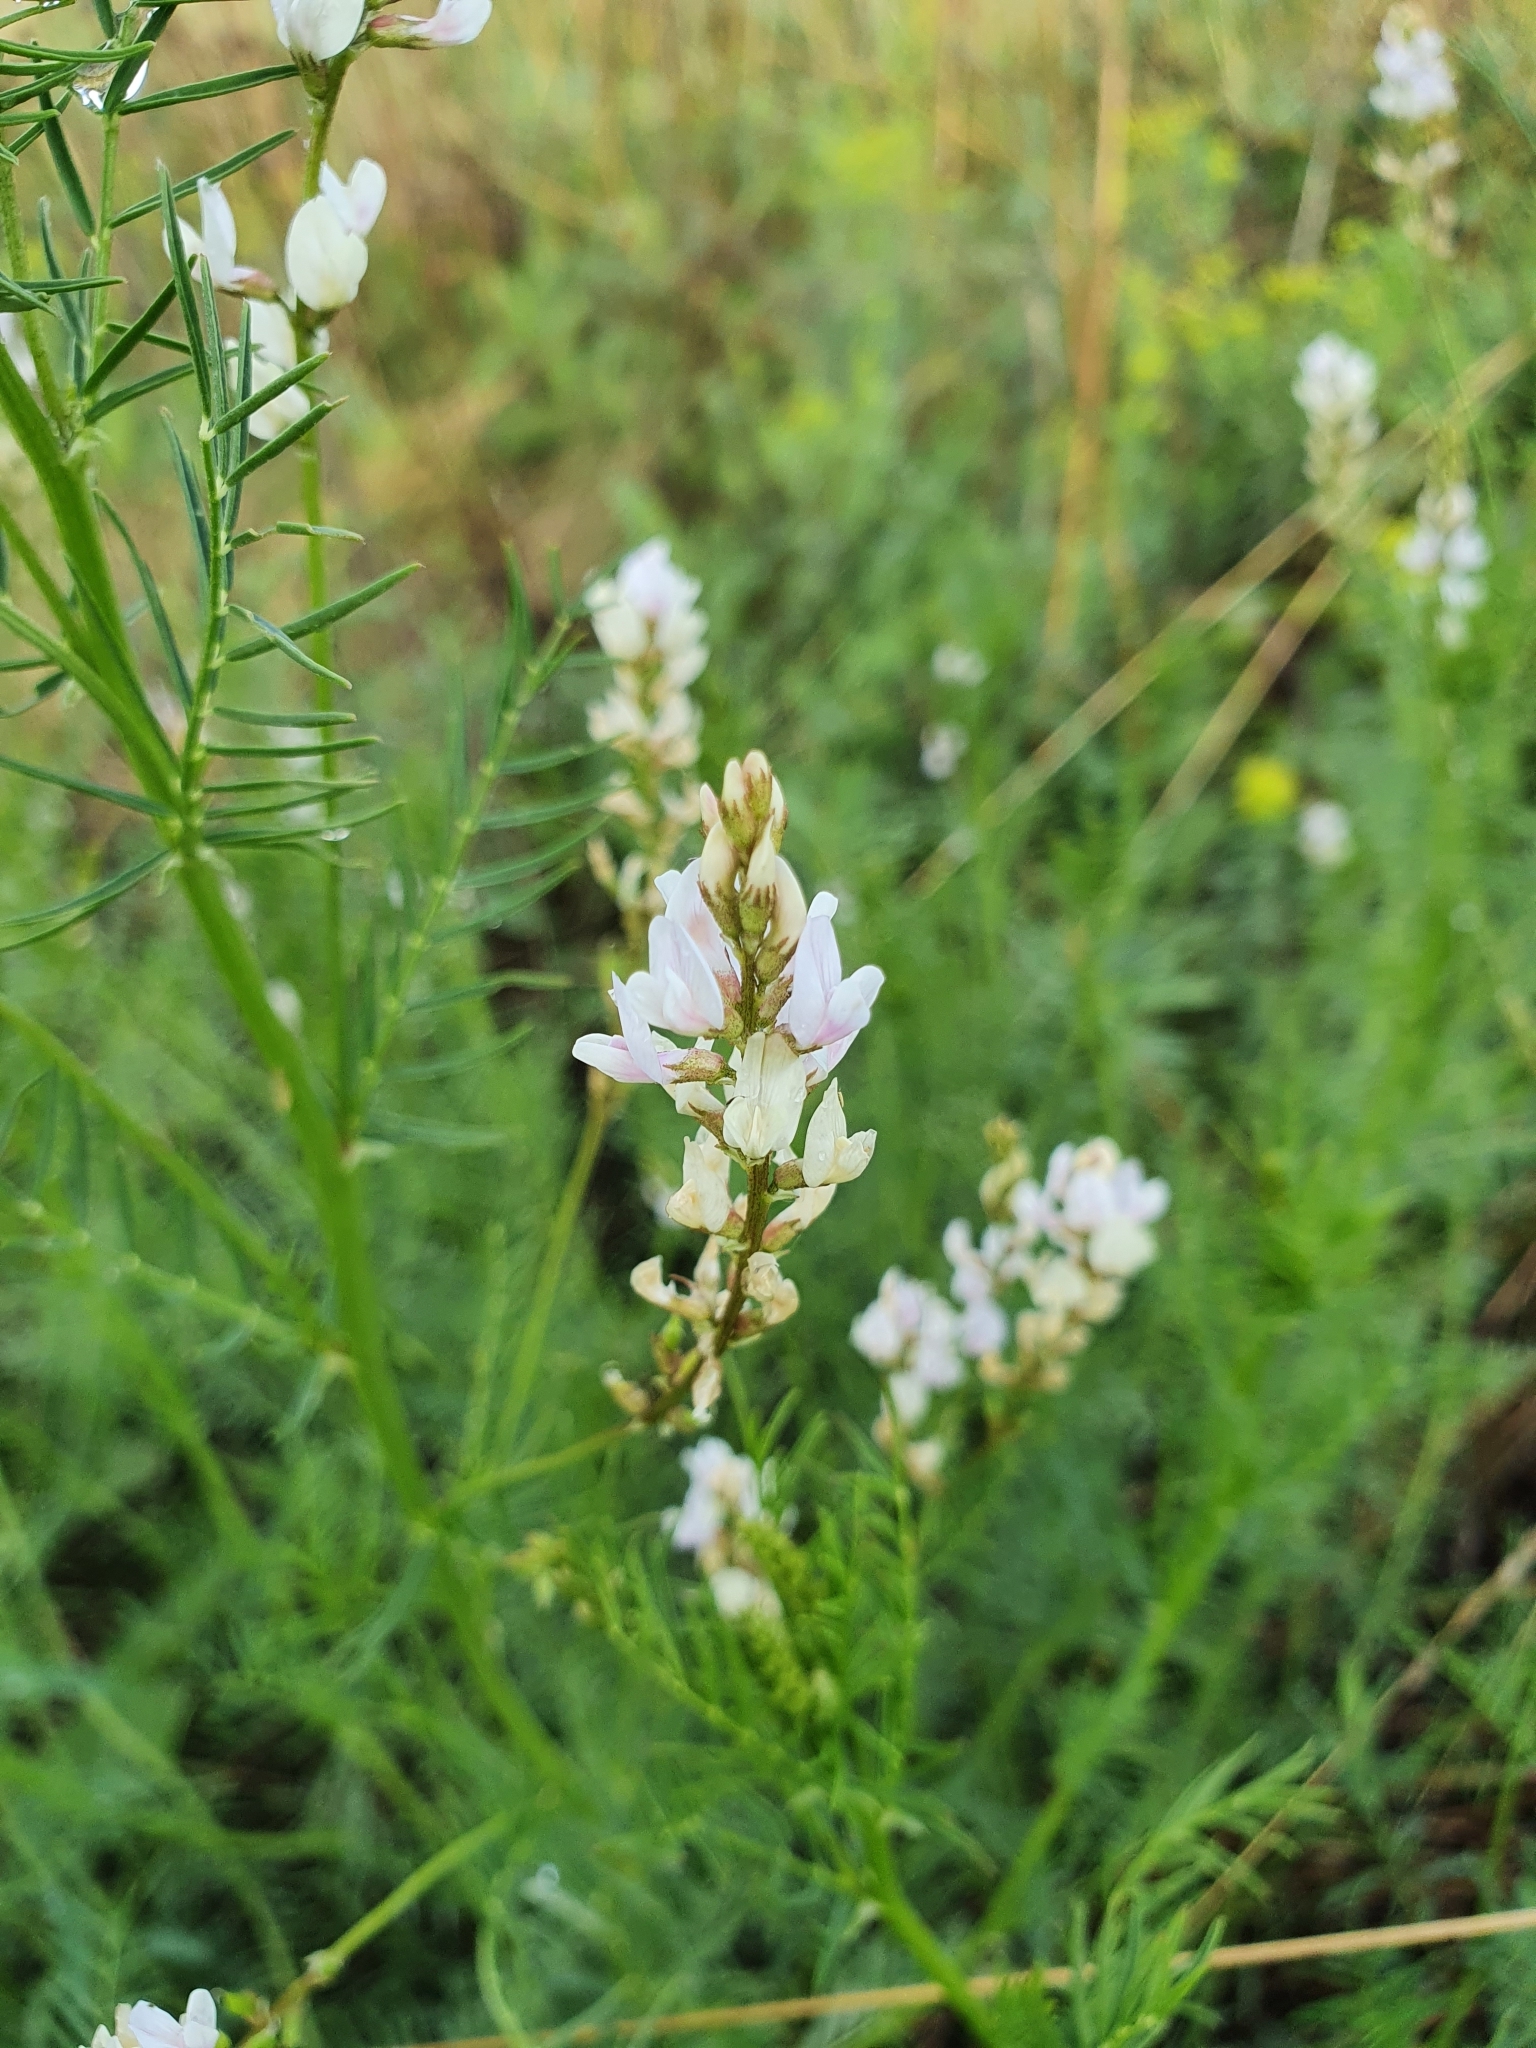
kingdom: Plantae
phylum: Tracheophyta
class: Magnoliopsida
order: Fabales
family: Fabaceae
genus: Astragalus
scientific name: Astragalus sulcatus
